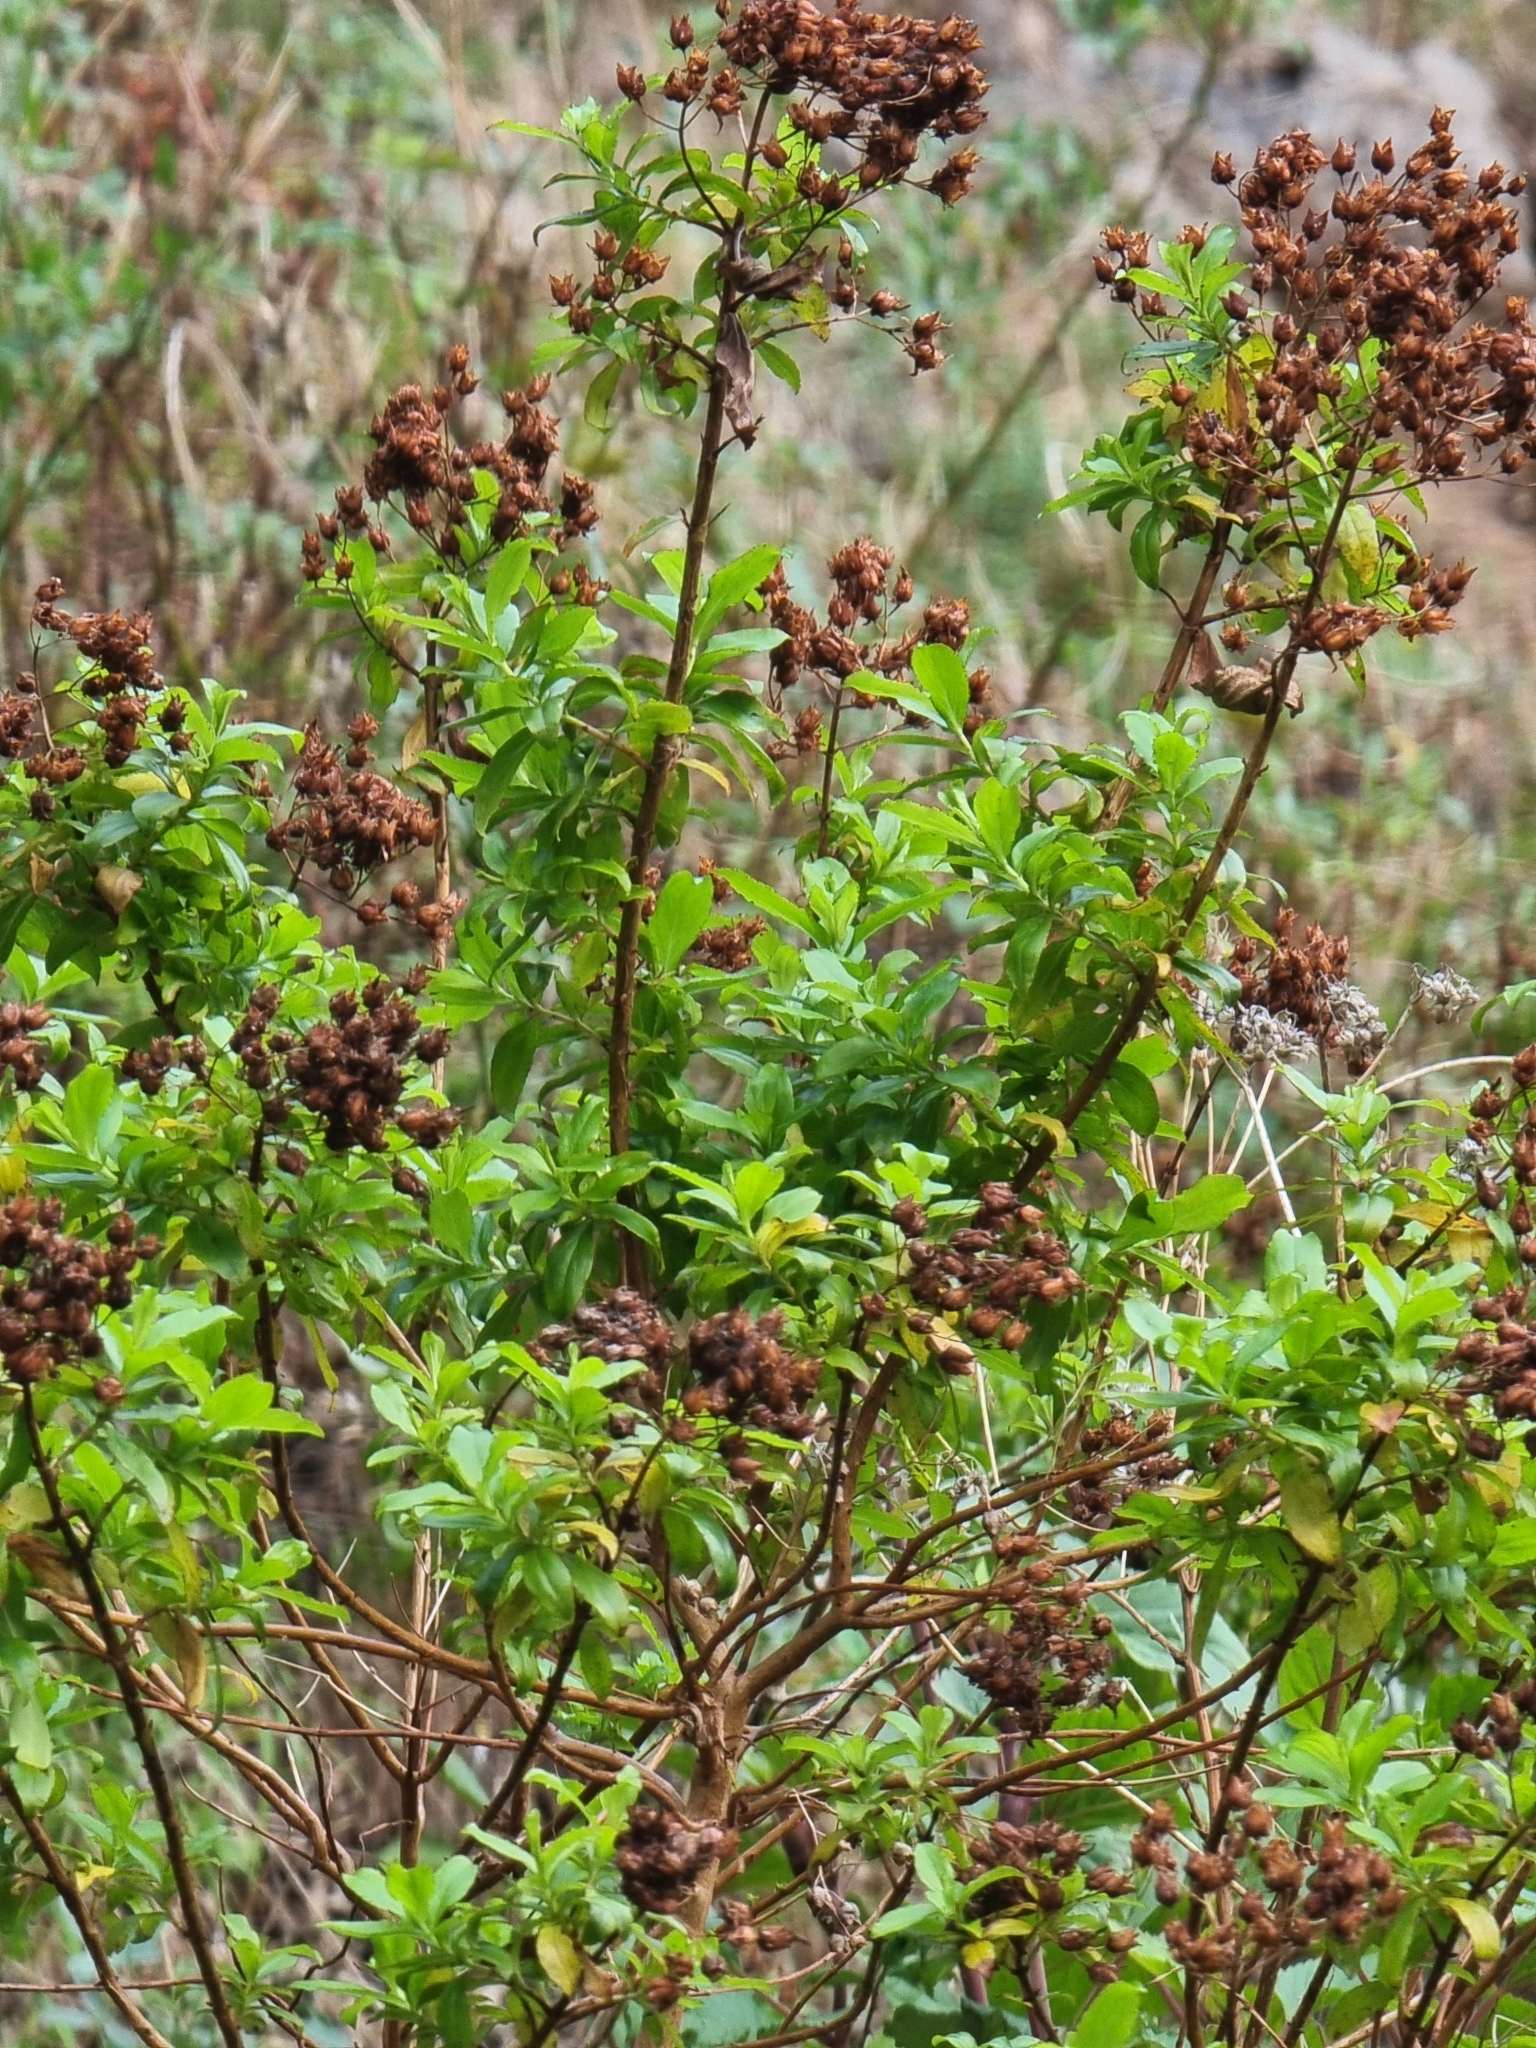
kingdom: Plantae
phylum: Tracheophyta
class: Magnoliopsida
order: Malpighiales
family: Hypericaceae
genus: Hypericum
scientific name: Hypericum glandulosum
